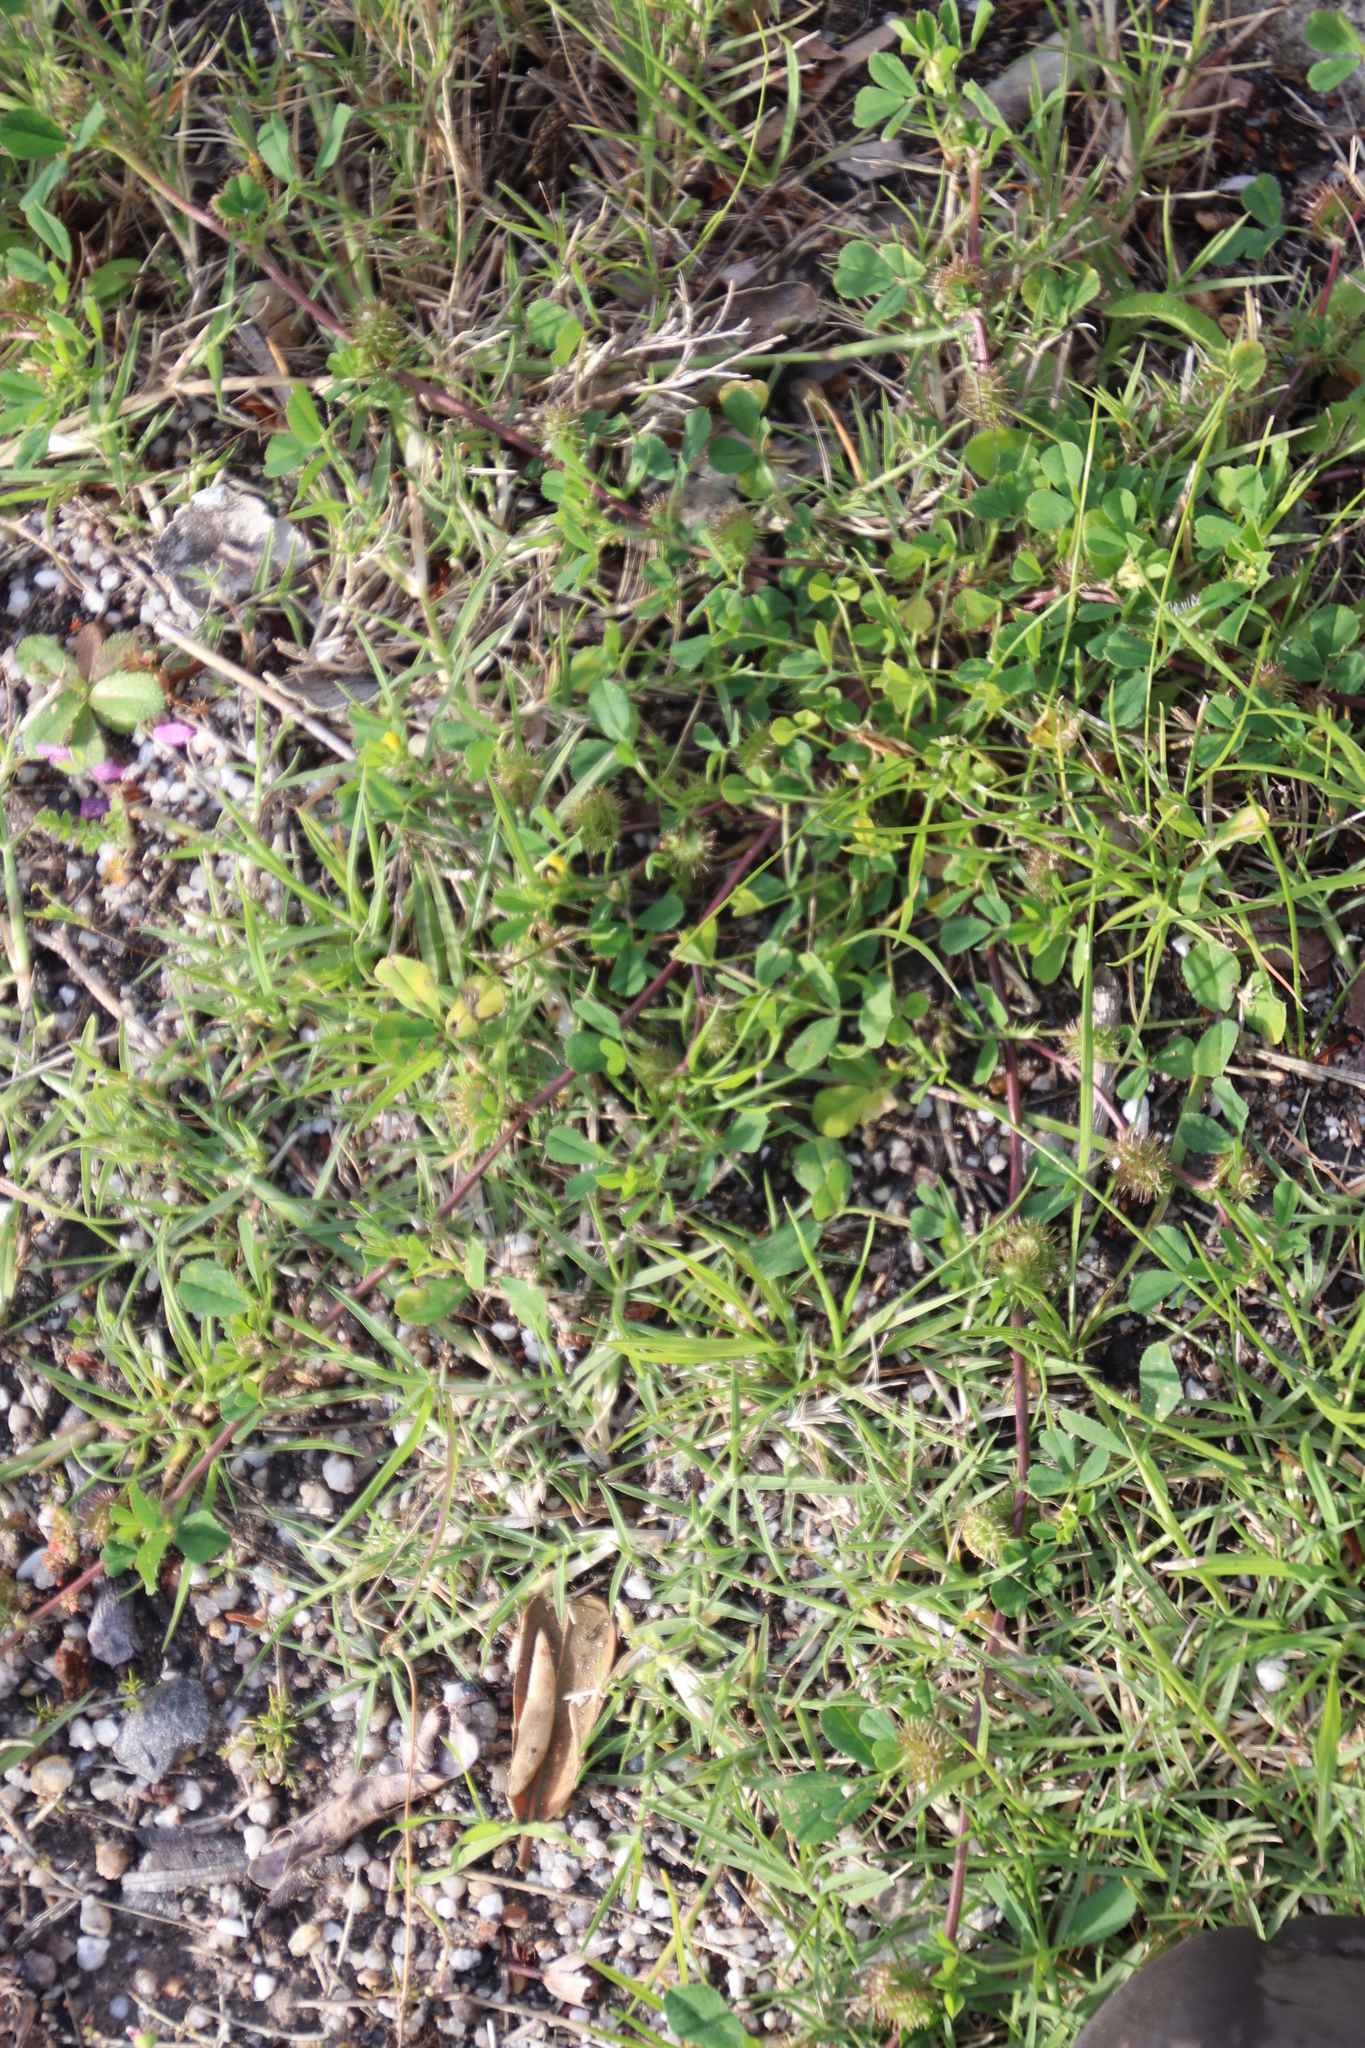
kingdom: Plantae
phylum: Tracheophyta
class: Magnoliopsida
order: Fabales
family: Fabaceae
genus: Medicago
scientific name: Medicago polymorpha
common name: Burclover
